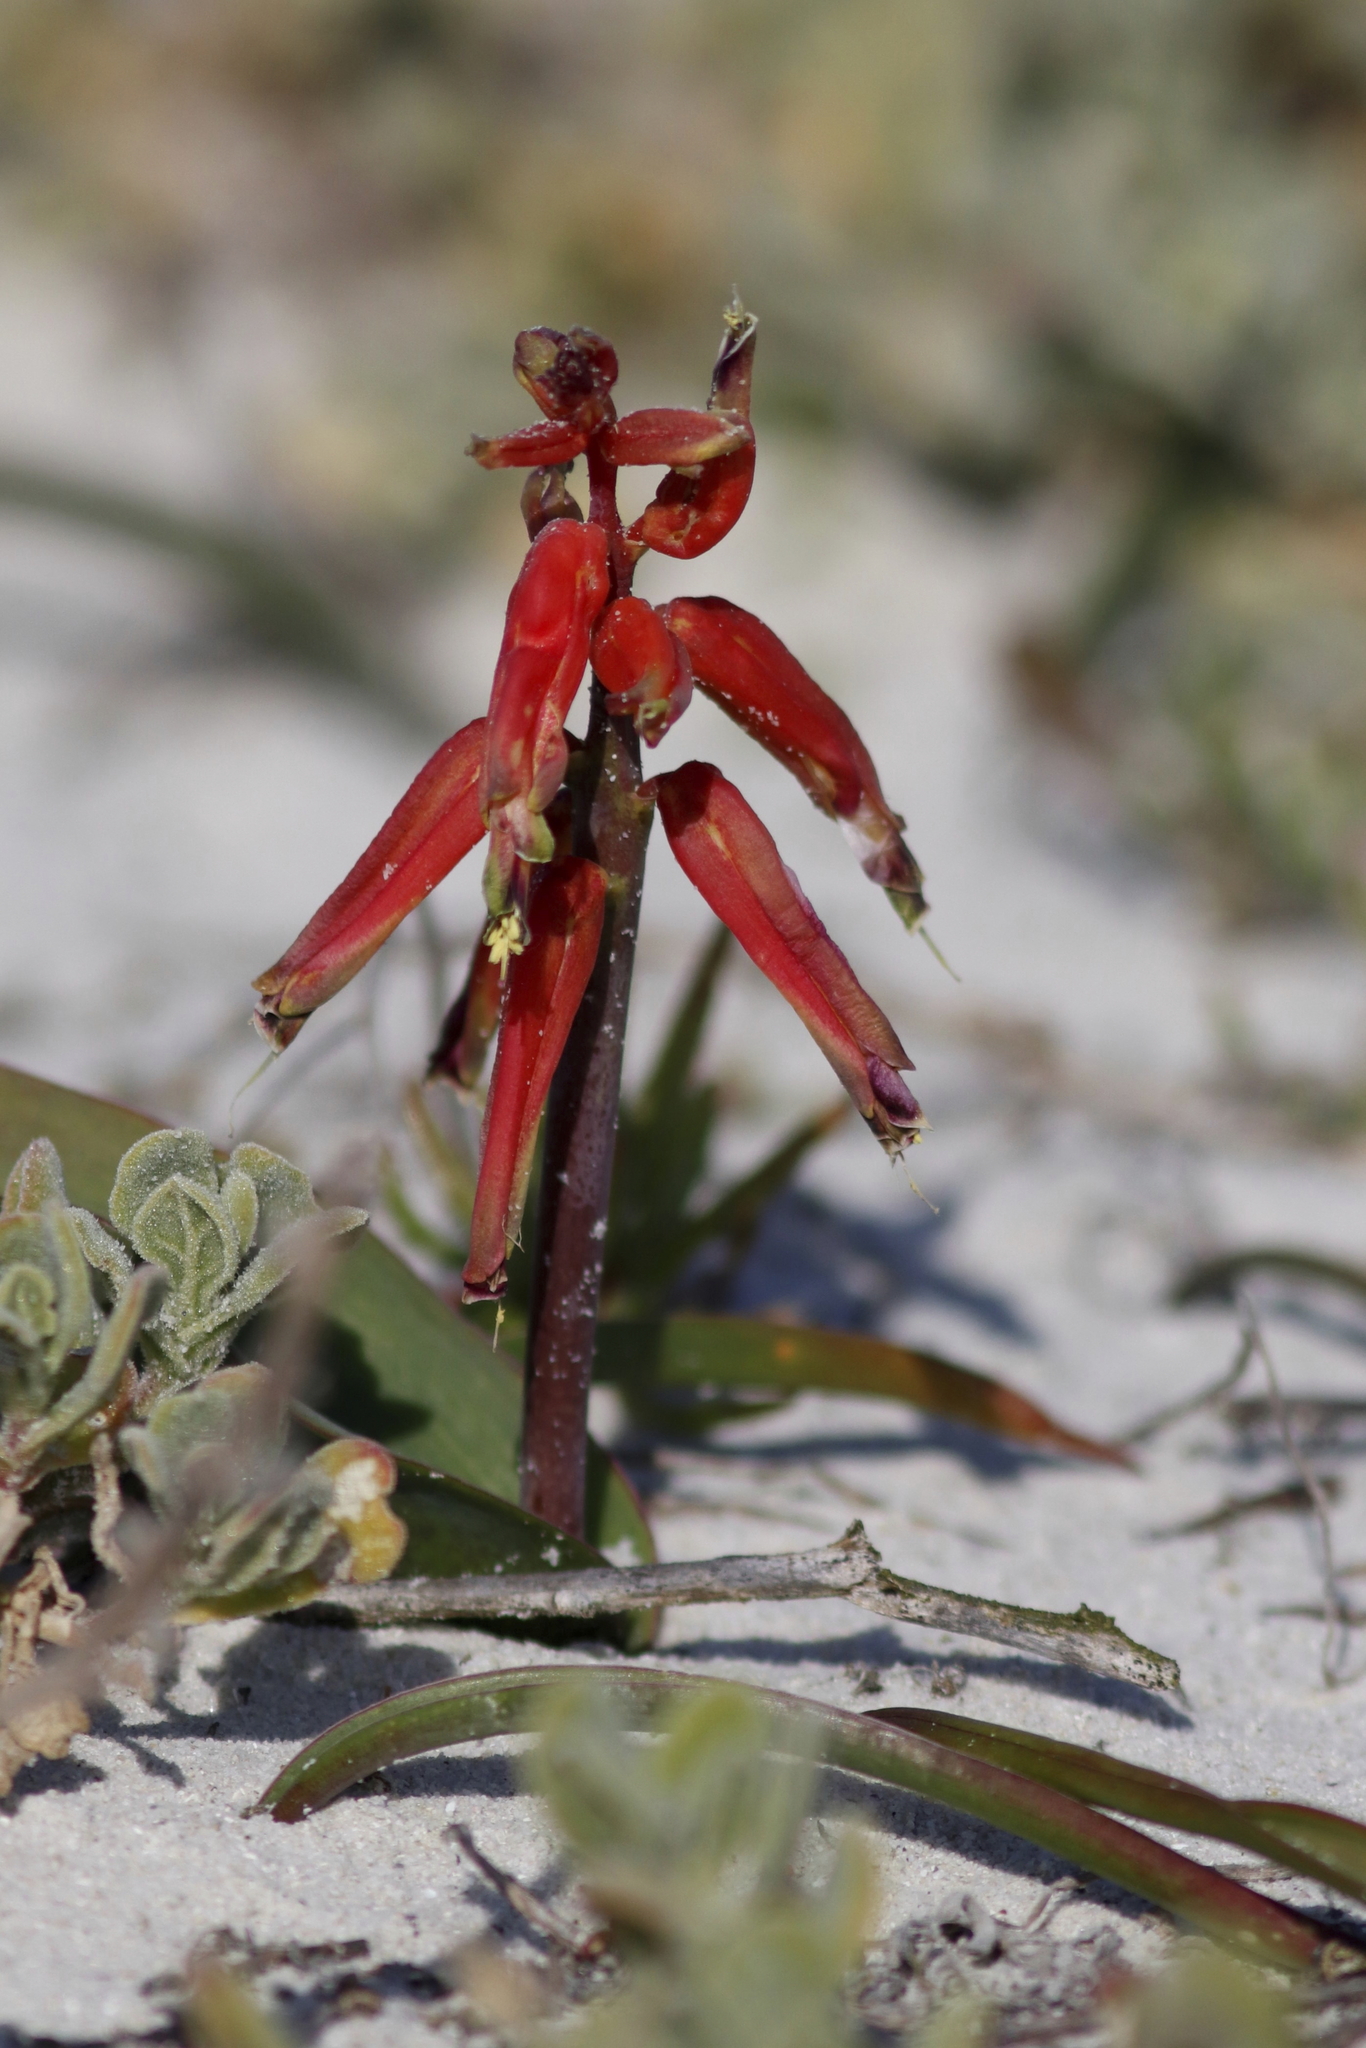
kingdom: Plantae
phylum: Tracheophyta
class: Liliopsida
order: Asparagales
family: Asparagaceae
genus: Lachenalia
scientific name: Lachenalia bulbifera
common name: Red lachenalia
